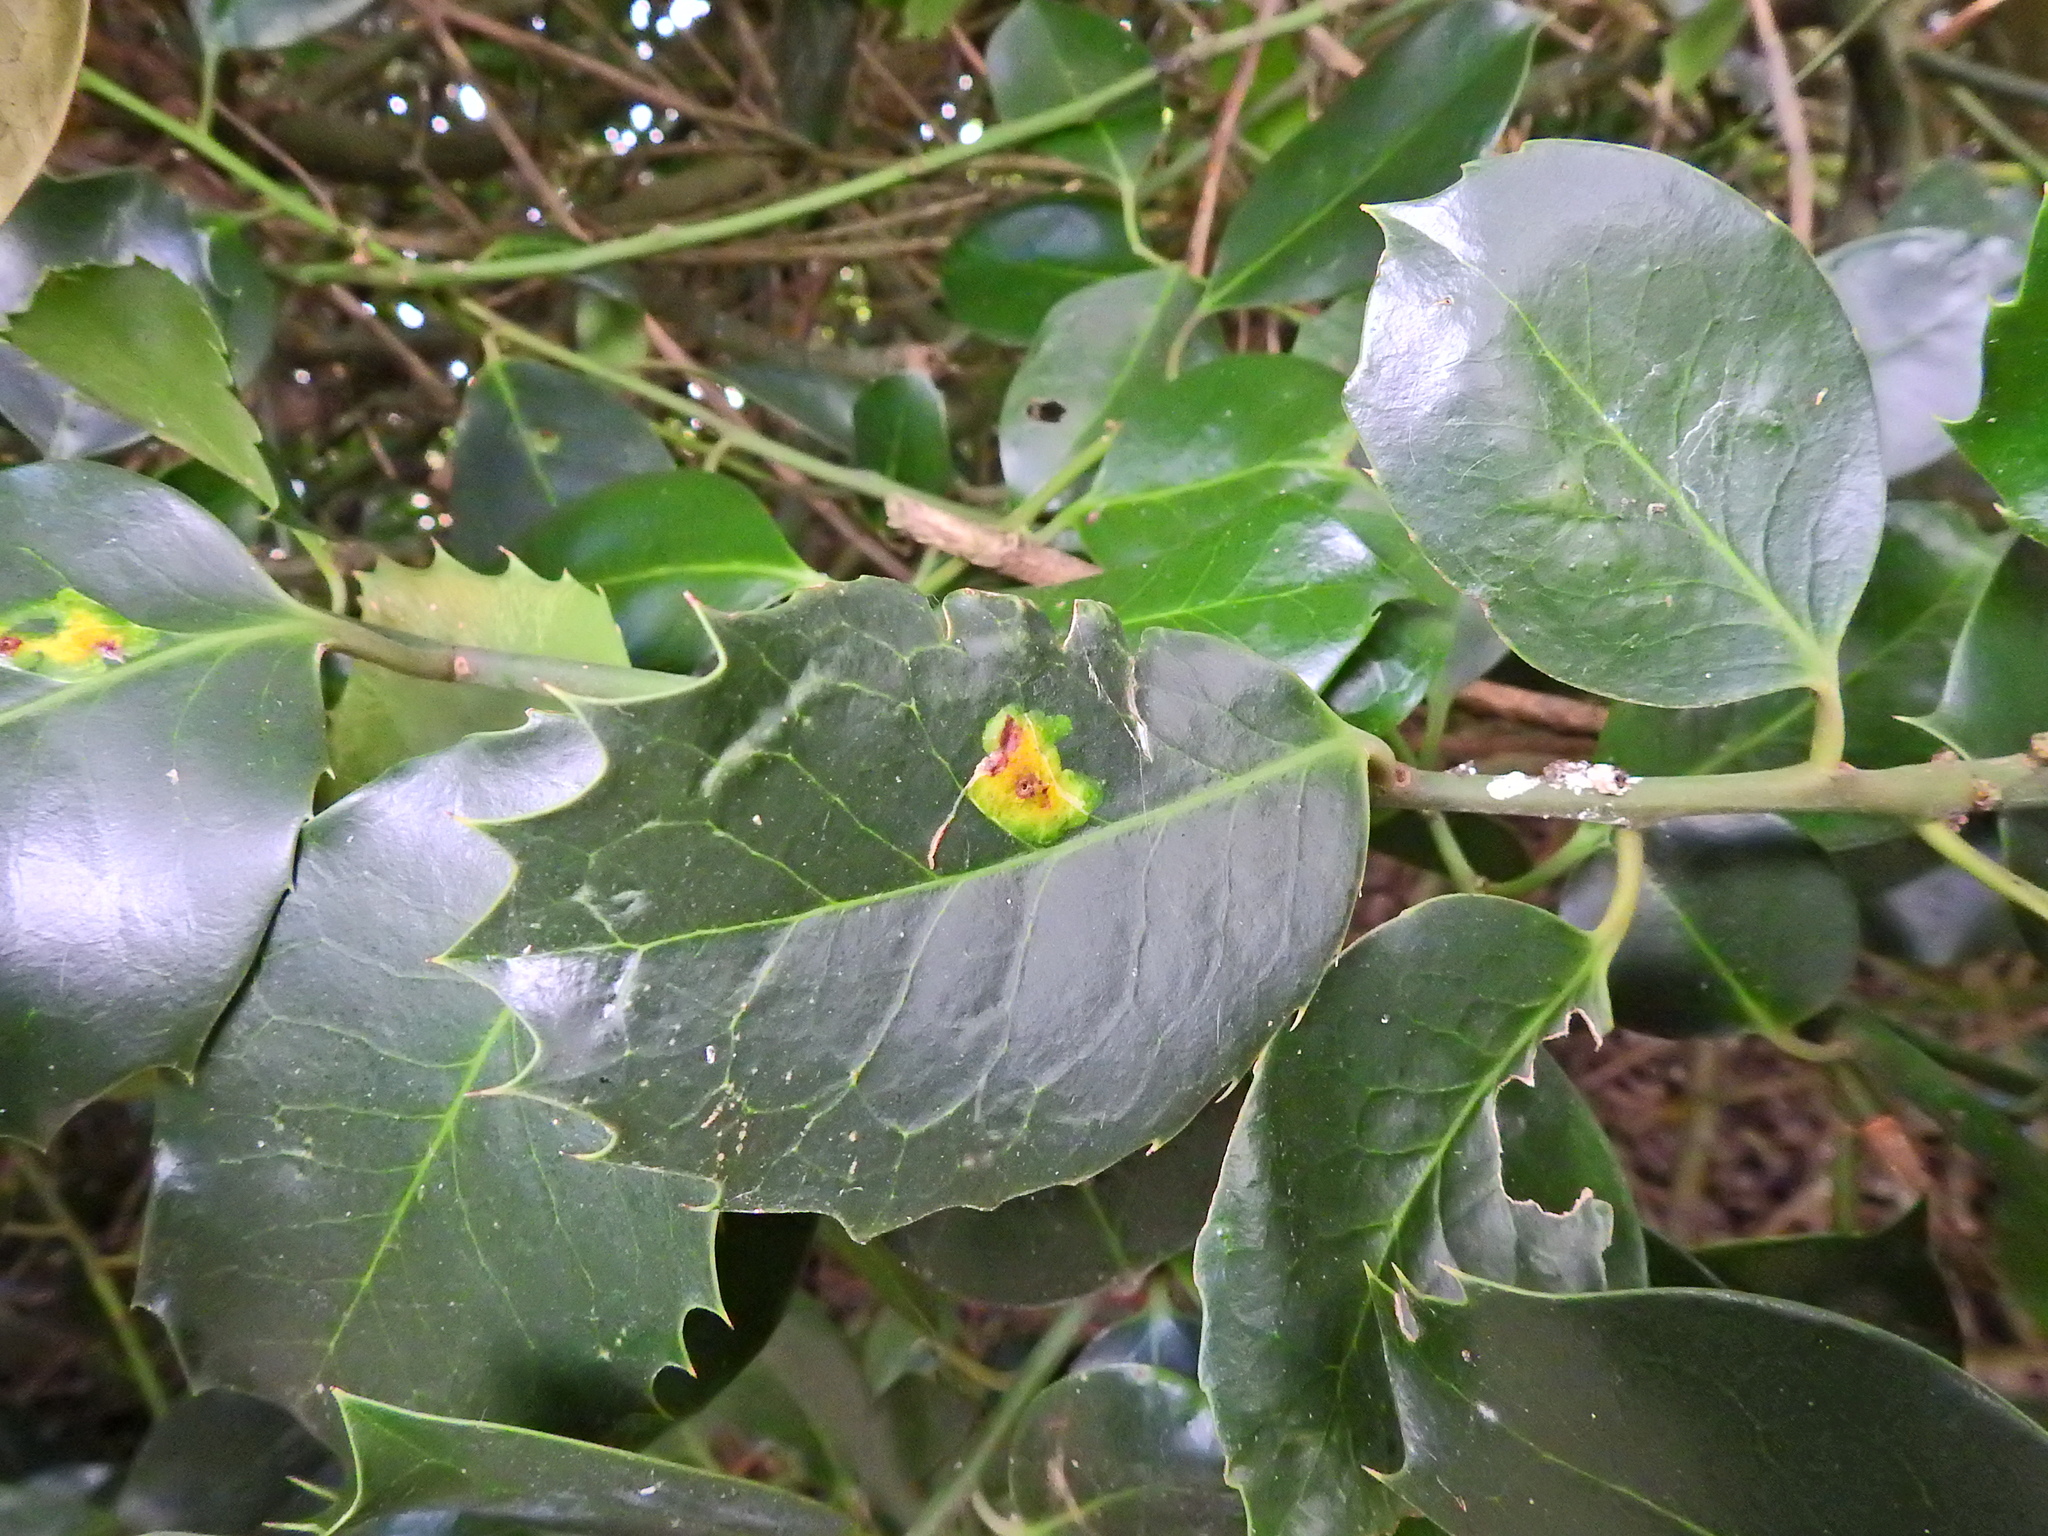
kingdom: Animalia
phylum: Arthropoda
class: Insecta
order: Diptera
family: Agromyzidae
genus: Phytomyza
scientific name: Phytomyza ilicis
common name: Holly leafminer
